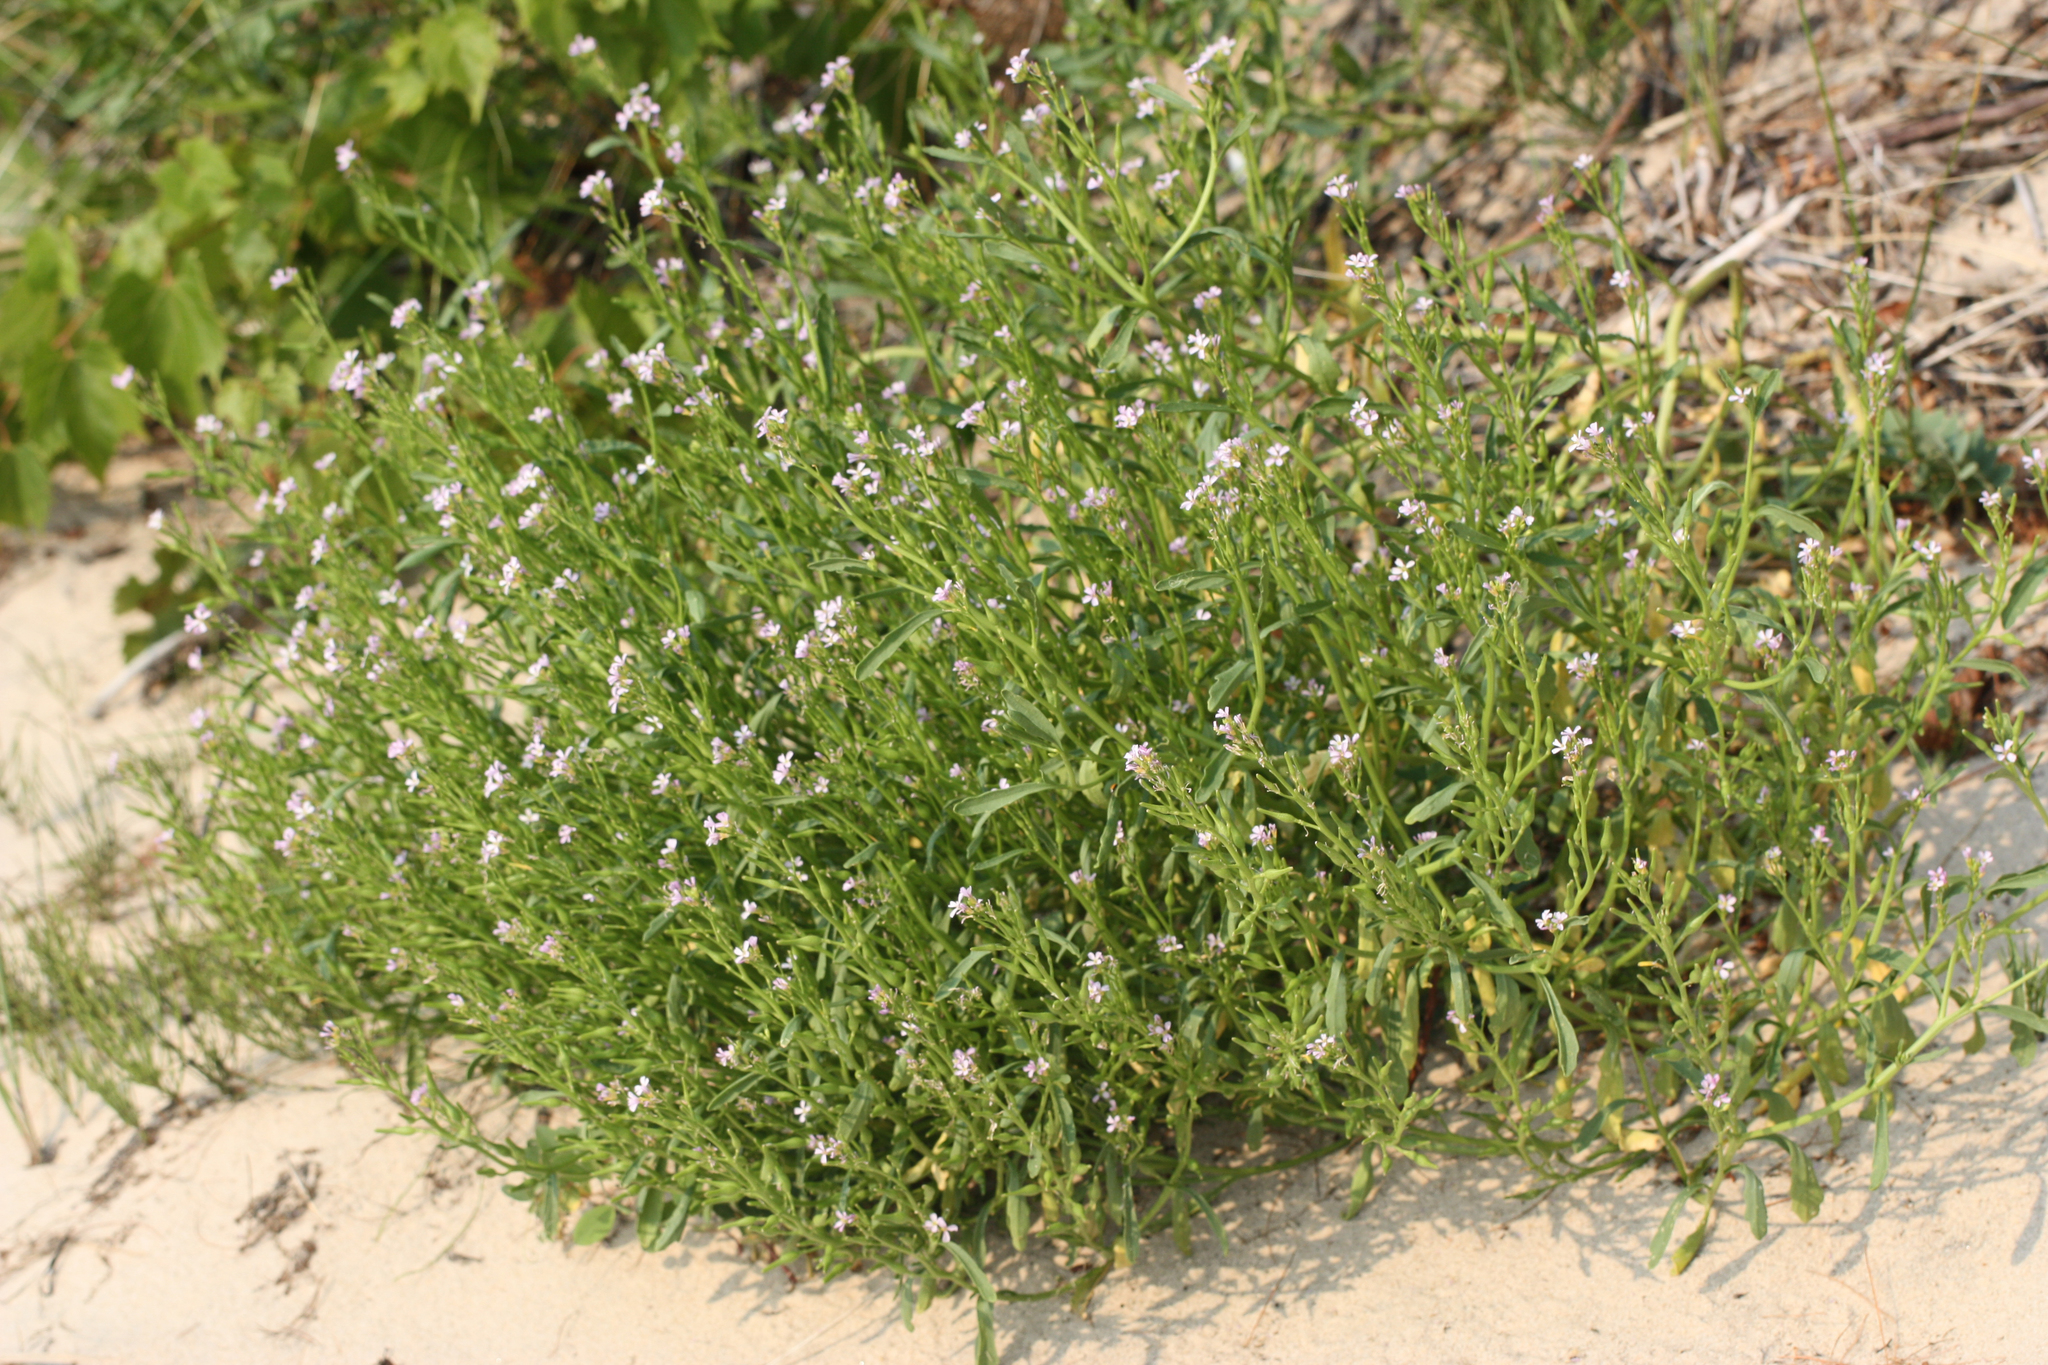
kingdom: Plantae
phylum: Tracheophyta
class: Magnoliopsida
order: Brassicales
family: Brassicaceae
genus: Cakile
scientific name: Cakile edentula
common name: American sea rocket
